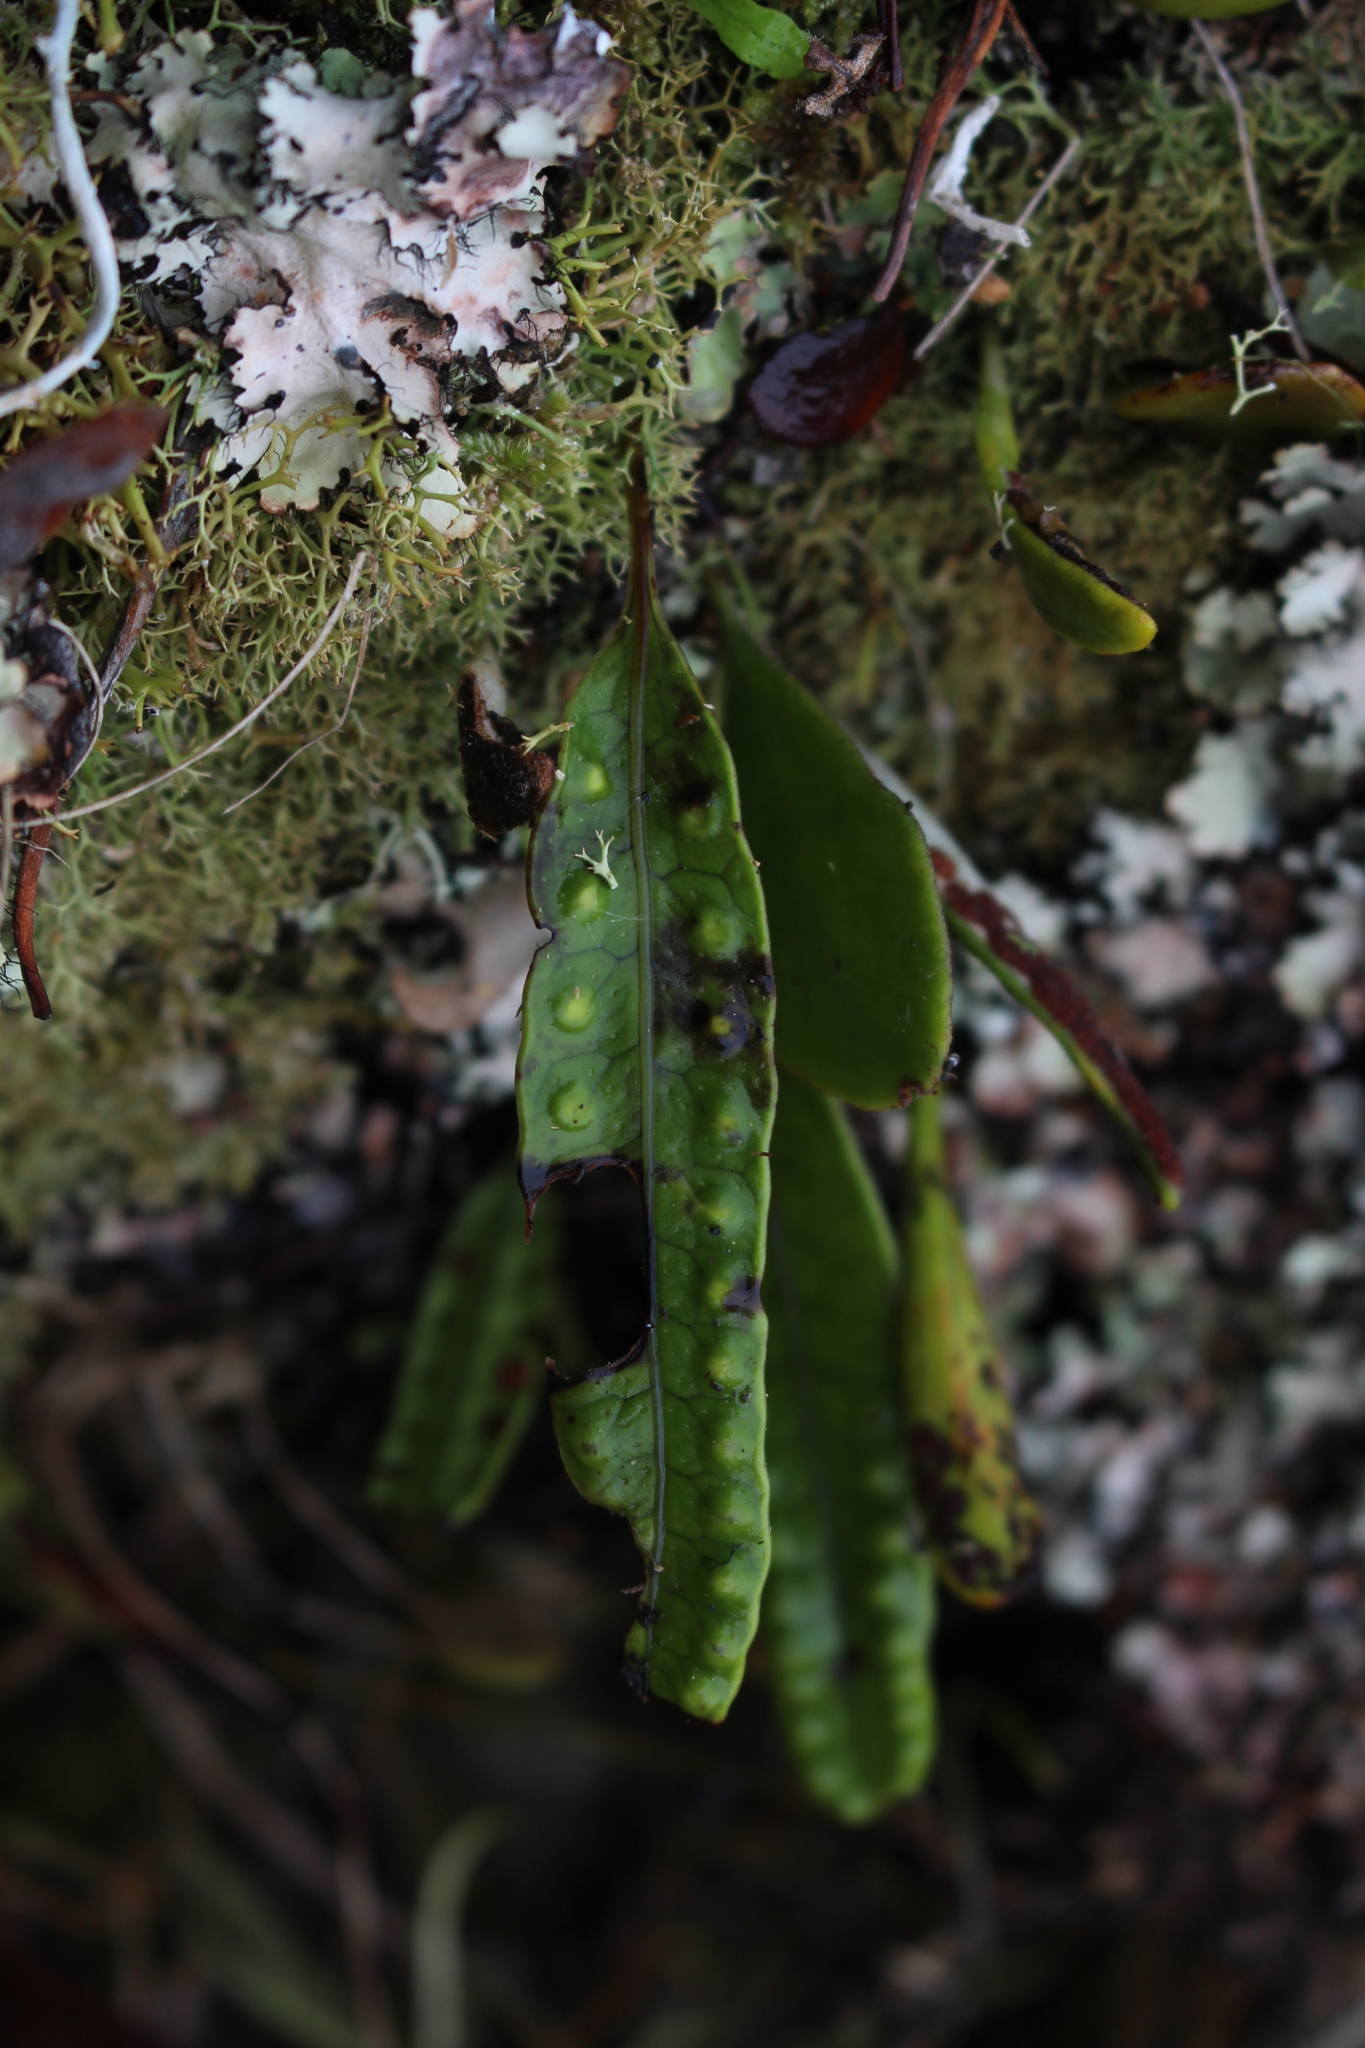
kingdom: Plantae
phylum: Tracheophyta
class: Polypodiopsida
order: Polypodiales
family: Polypodiaceae
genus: Lecanopteris
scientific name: Lecanopteris pustulata
